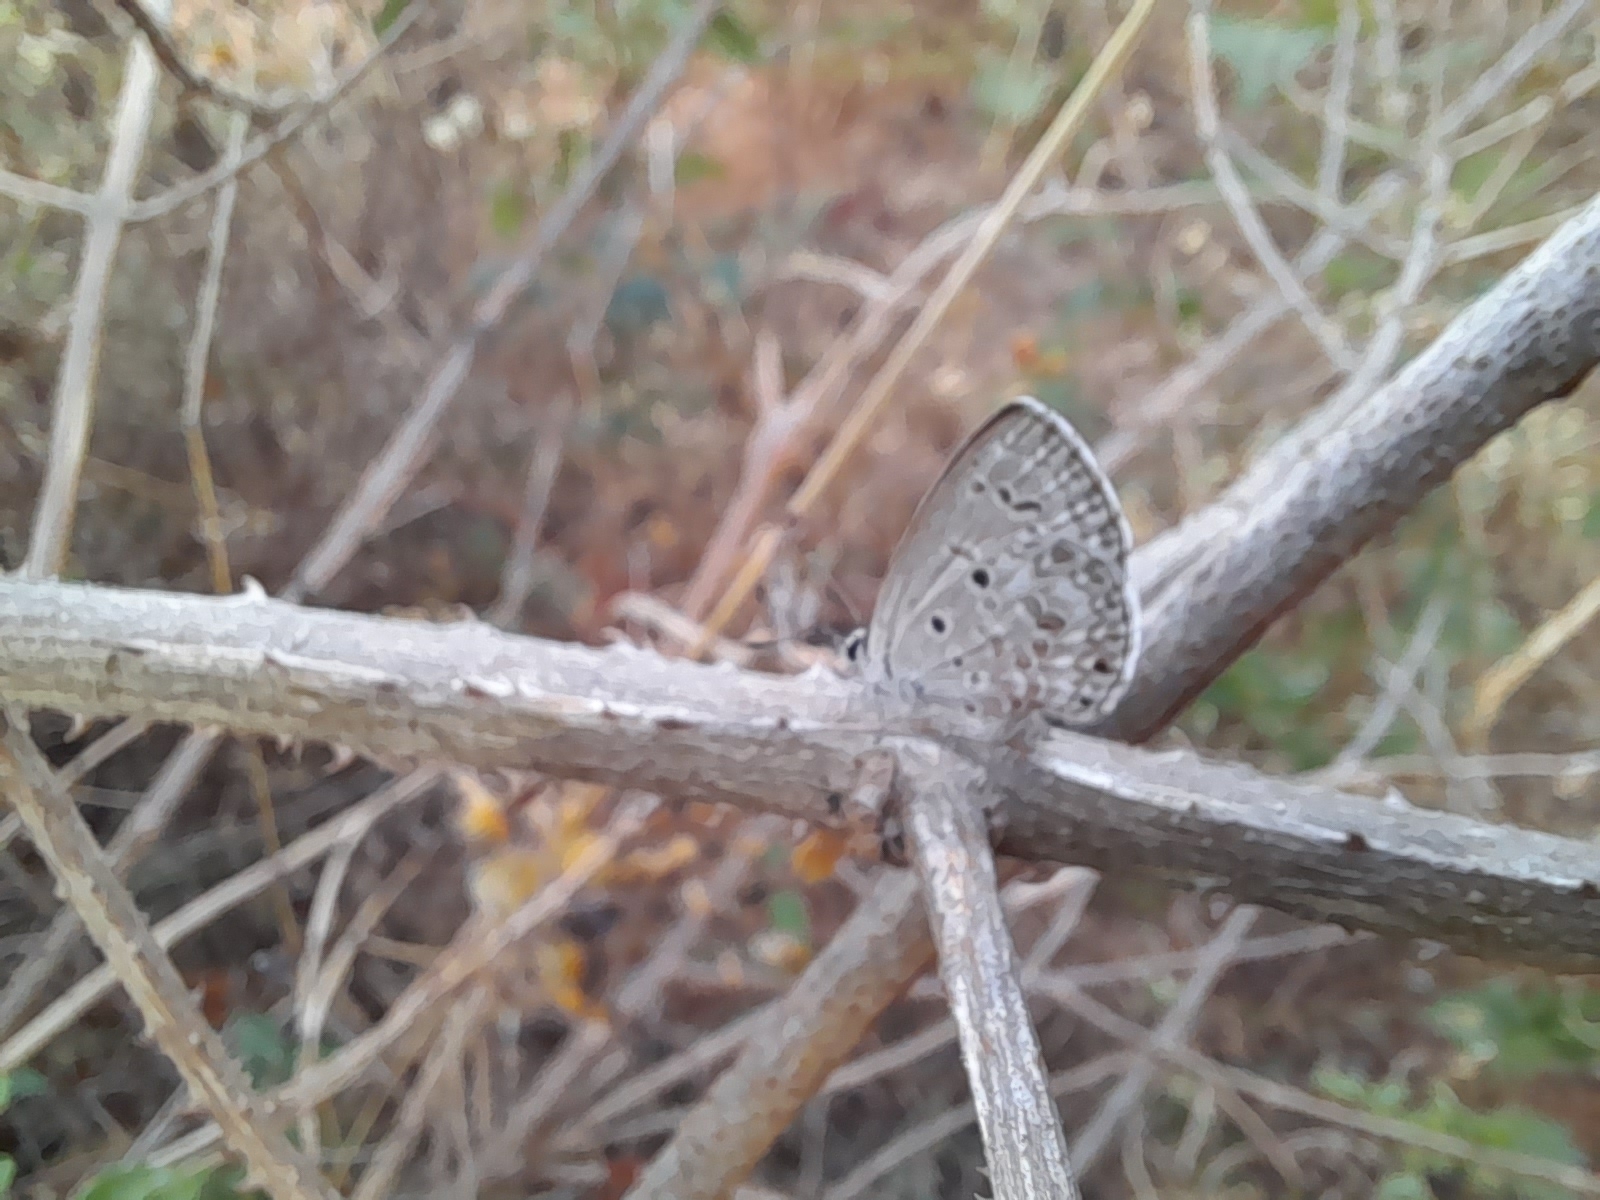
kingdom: Animalia
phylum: Arthropoda
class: Insecta
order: Lepidoptera
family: Lycaenidae
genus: Chilades
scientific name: Chilades laius
